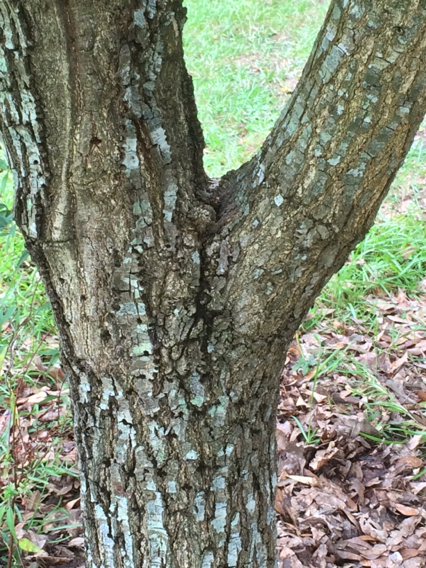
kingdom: Plantae
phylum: Tracheophyta
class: Magnoliopsida
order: Fagales
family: Fagaceae
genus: Quercus
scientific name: Quercus virginiana
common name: Southern live oak
